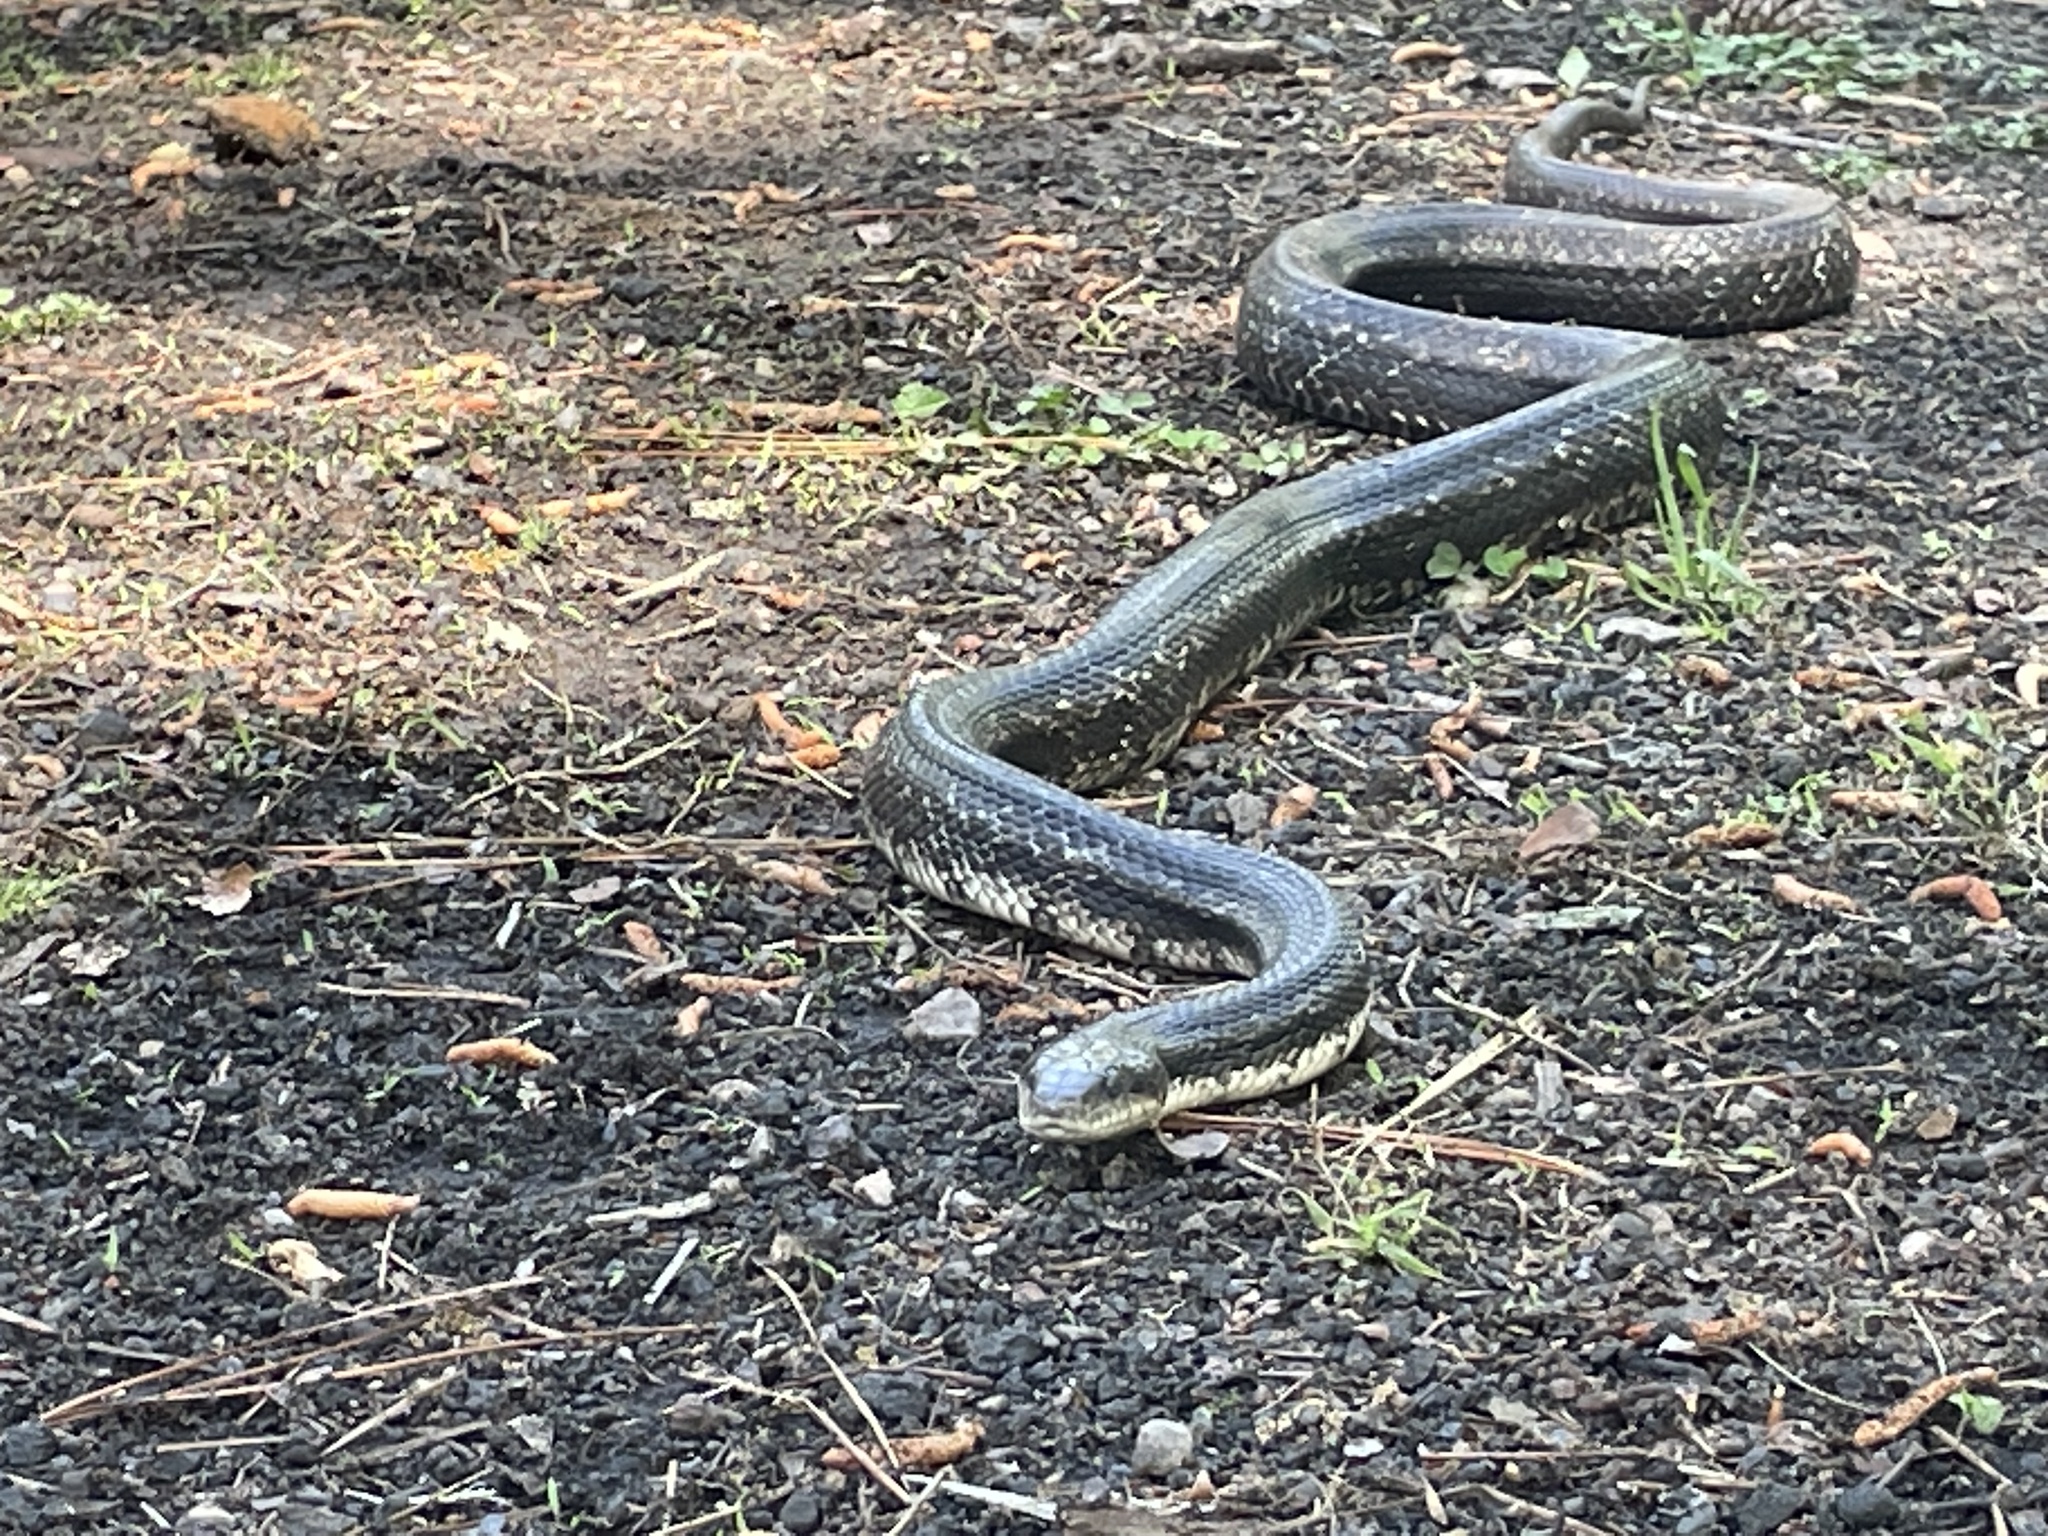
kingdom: Animalia
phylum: Chordata
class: Squamata
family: Colubridae
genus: Pantherophis
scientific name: Pantherophis alleghaniensis
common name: Eastern rat snake
